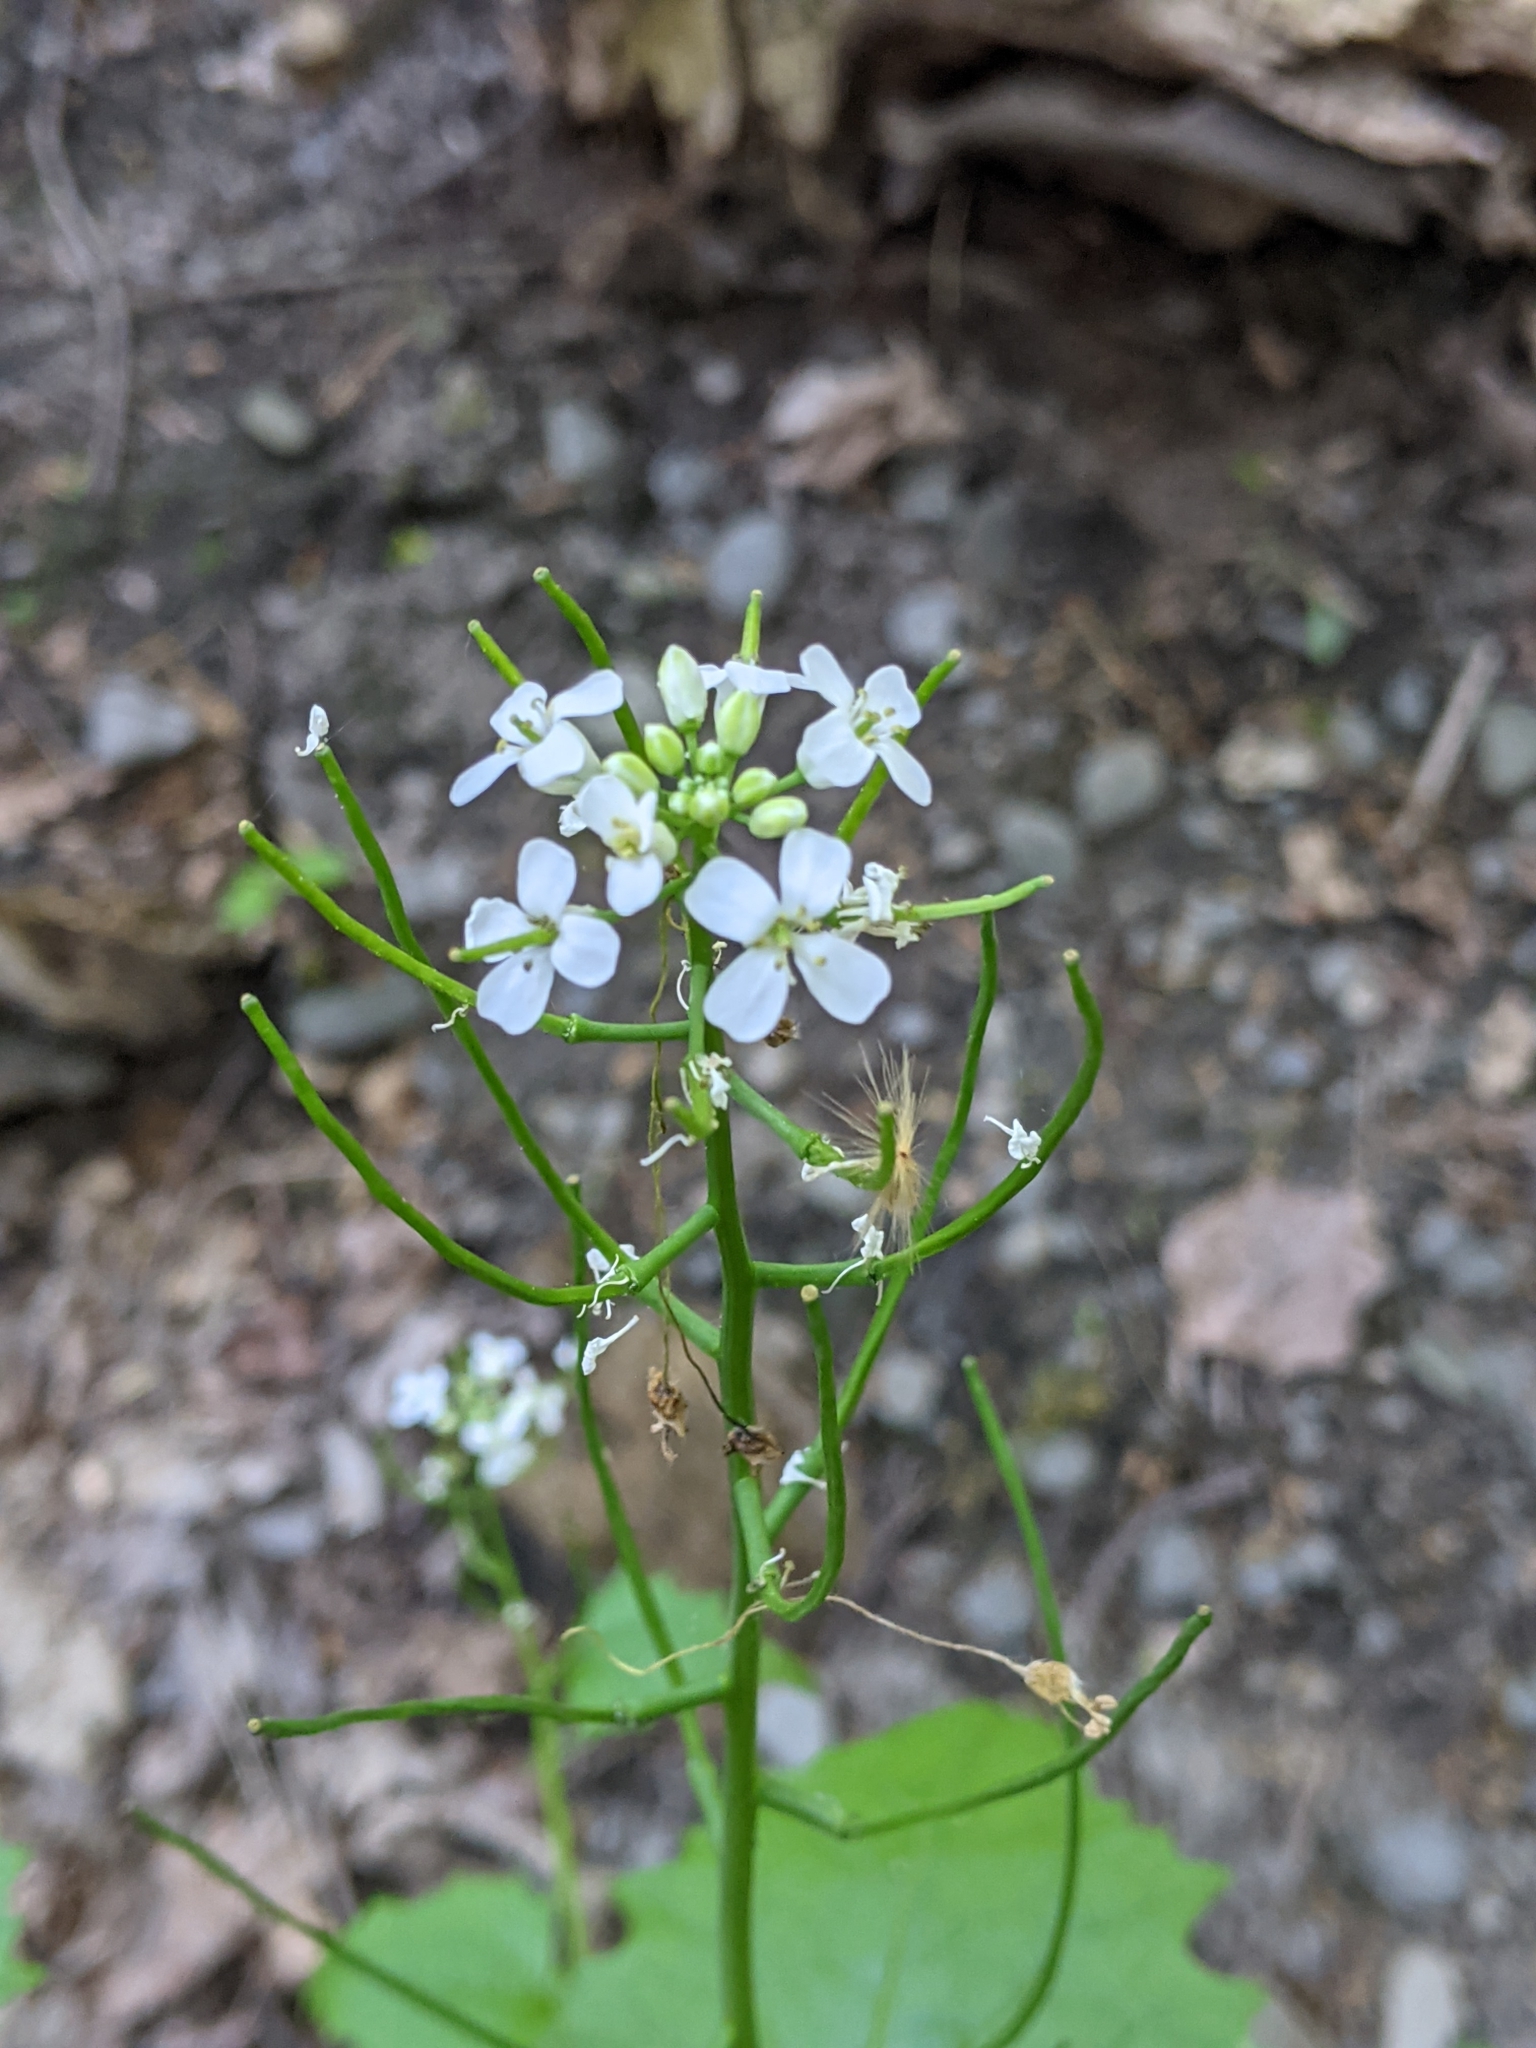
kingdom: Plantae
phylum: Tracheophyta
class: Magnoliopsida
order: Brassicales
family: Brassicaceae
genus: Alliaria
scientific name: Alliaria petiolata
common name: Garlic mustard
